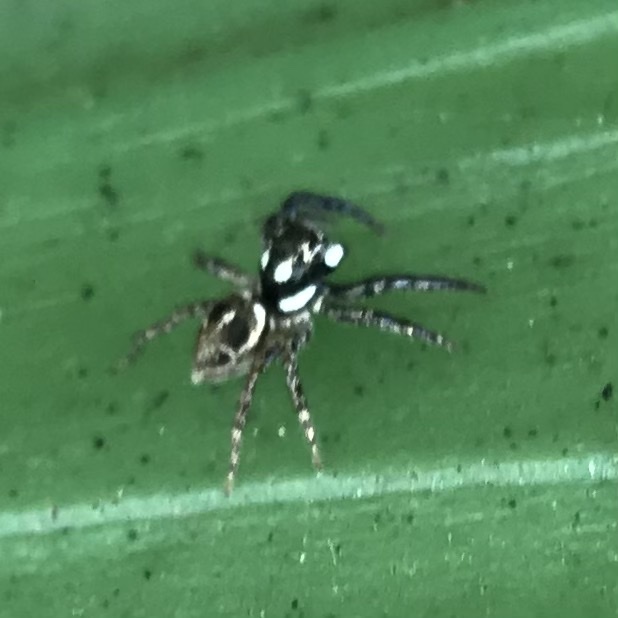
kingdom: Animalia
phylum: Arthropoda
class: Arachnida
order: Araneae
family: Salticidae
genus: Anasaitis
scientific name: Anasaitis canosa
